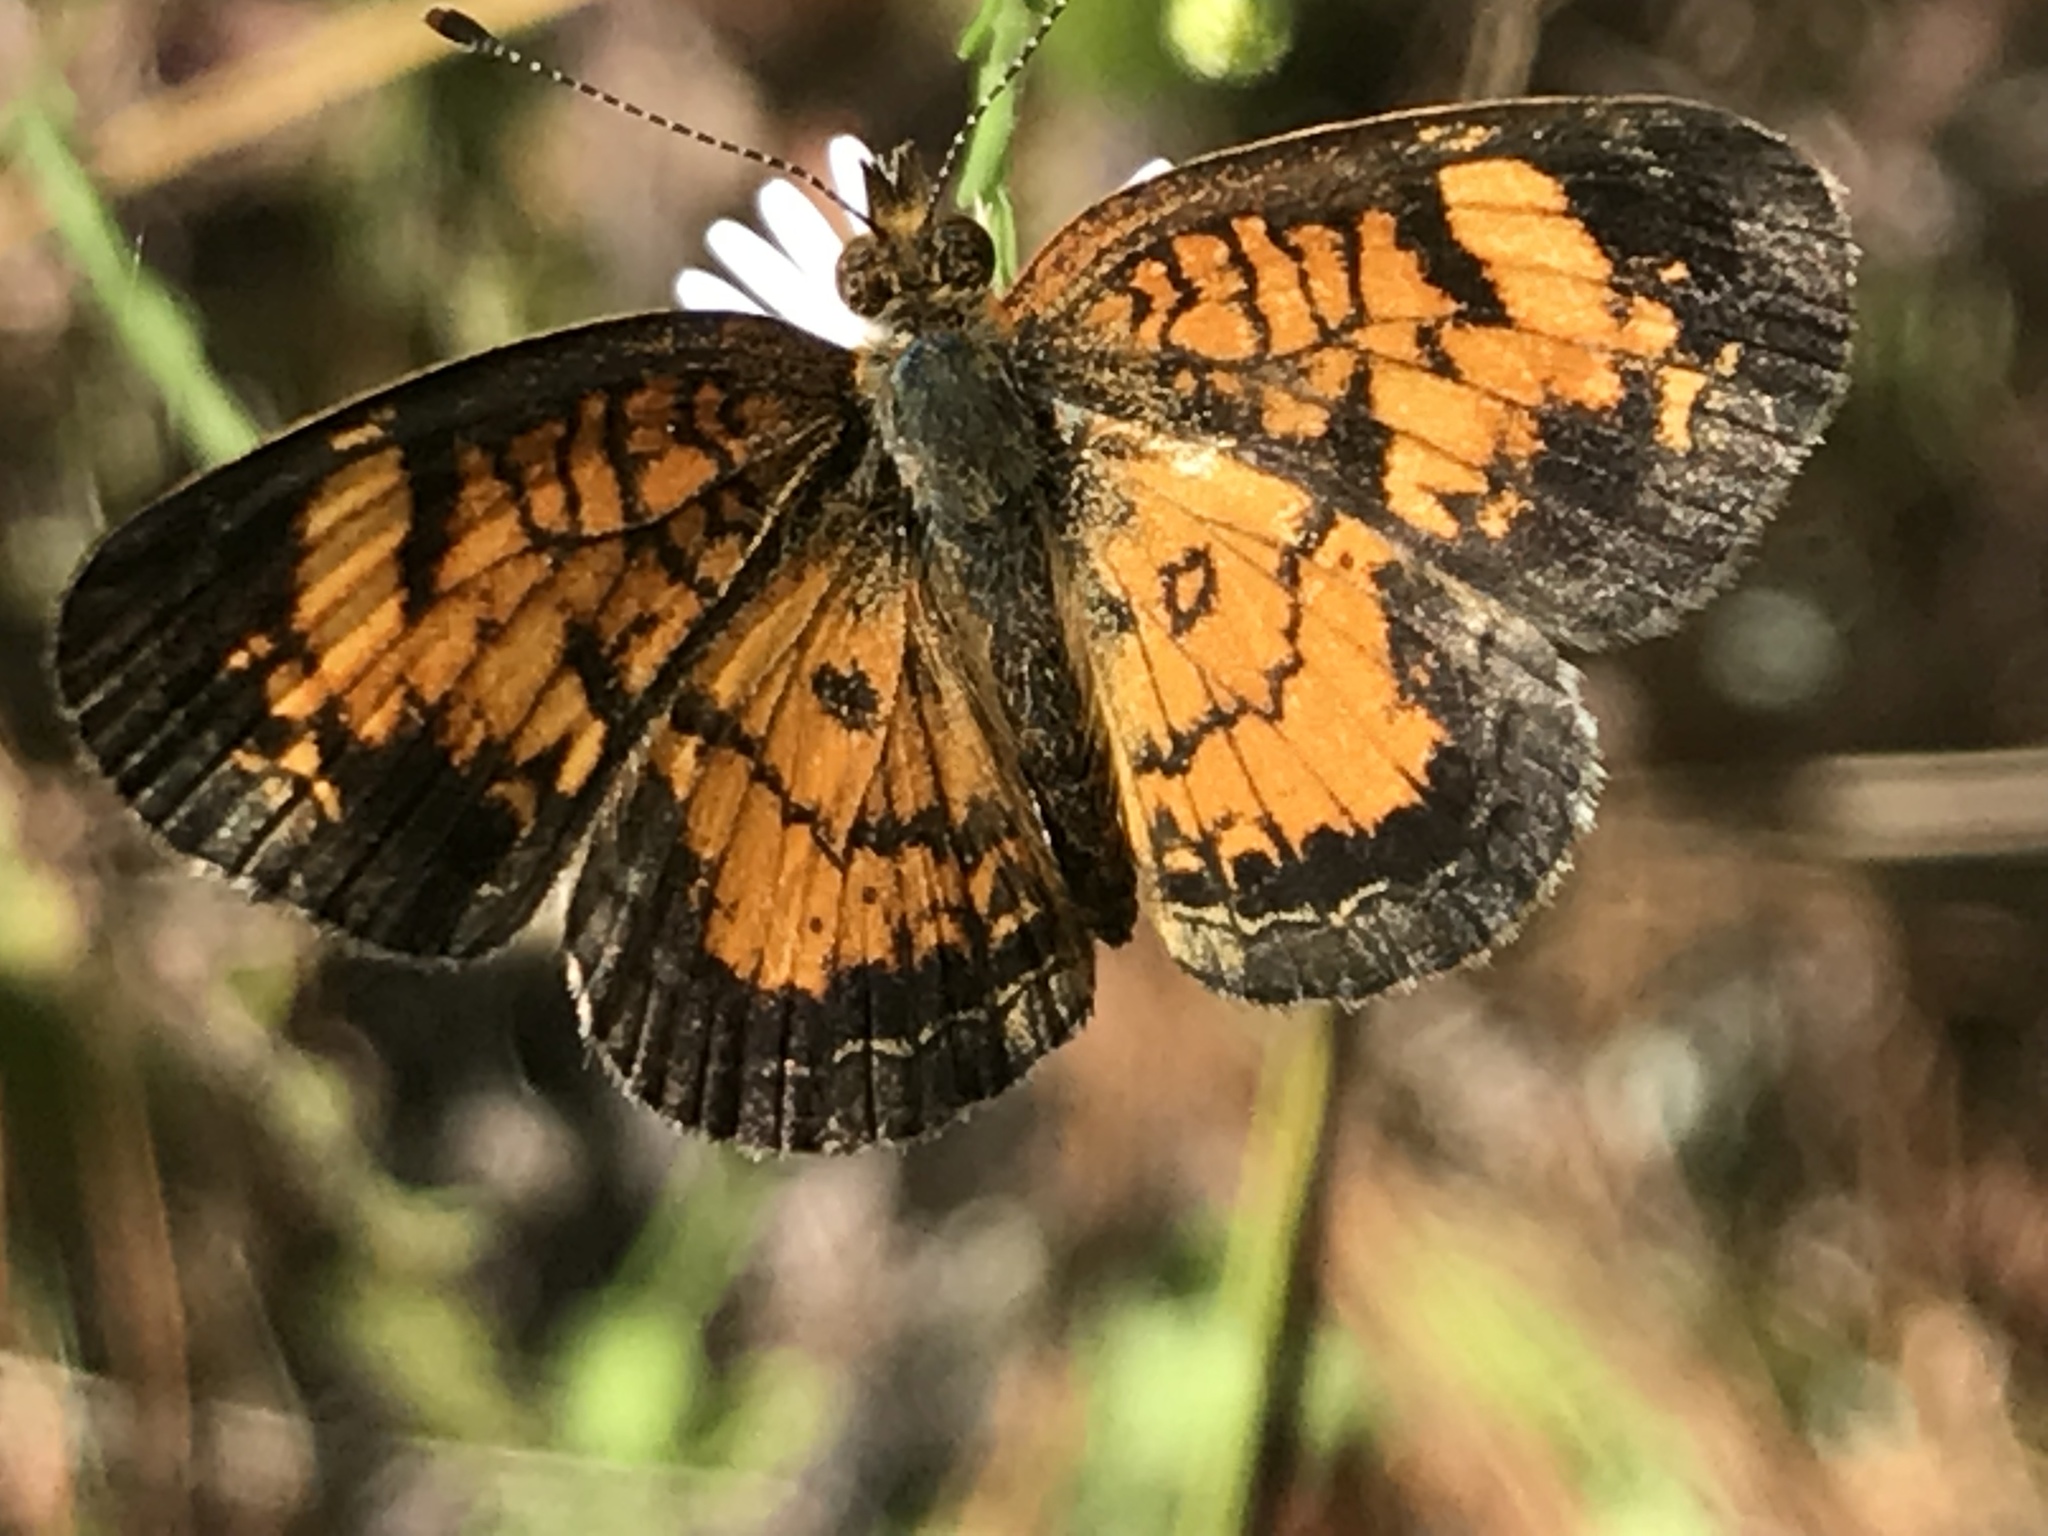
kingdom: Animalia
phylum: Arthropoda
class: Insecta
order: Lepidoptera
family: Nymphalidae
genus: Phyciodes
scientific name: Phyciodes tharos
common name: Pearl crescent
